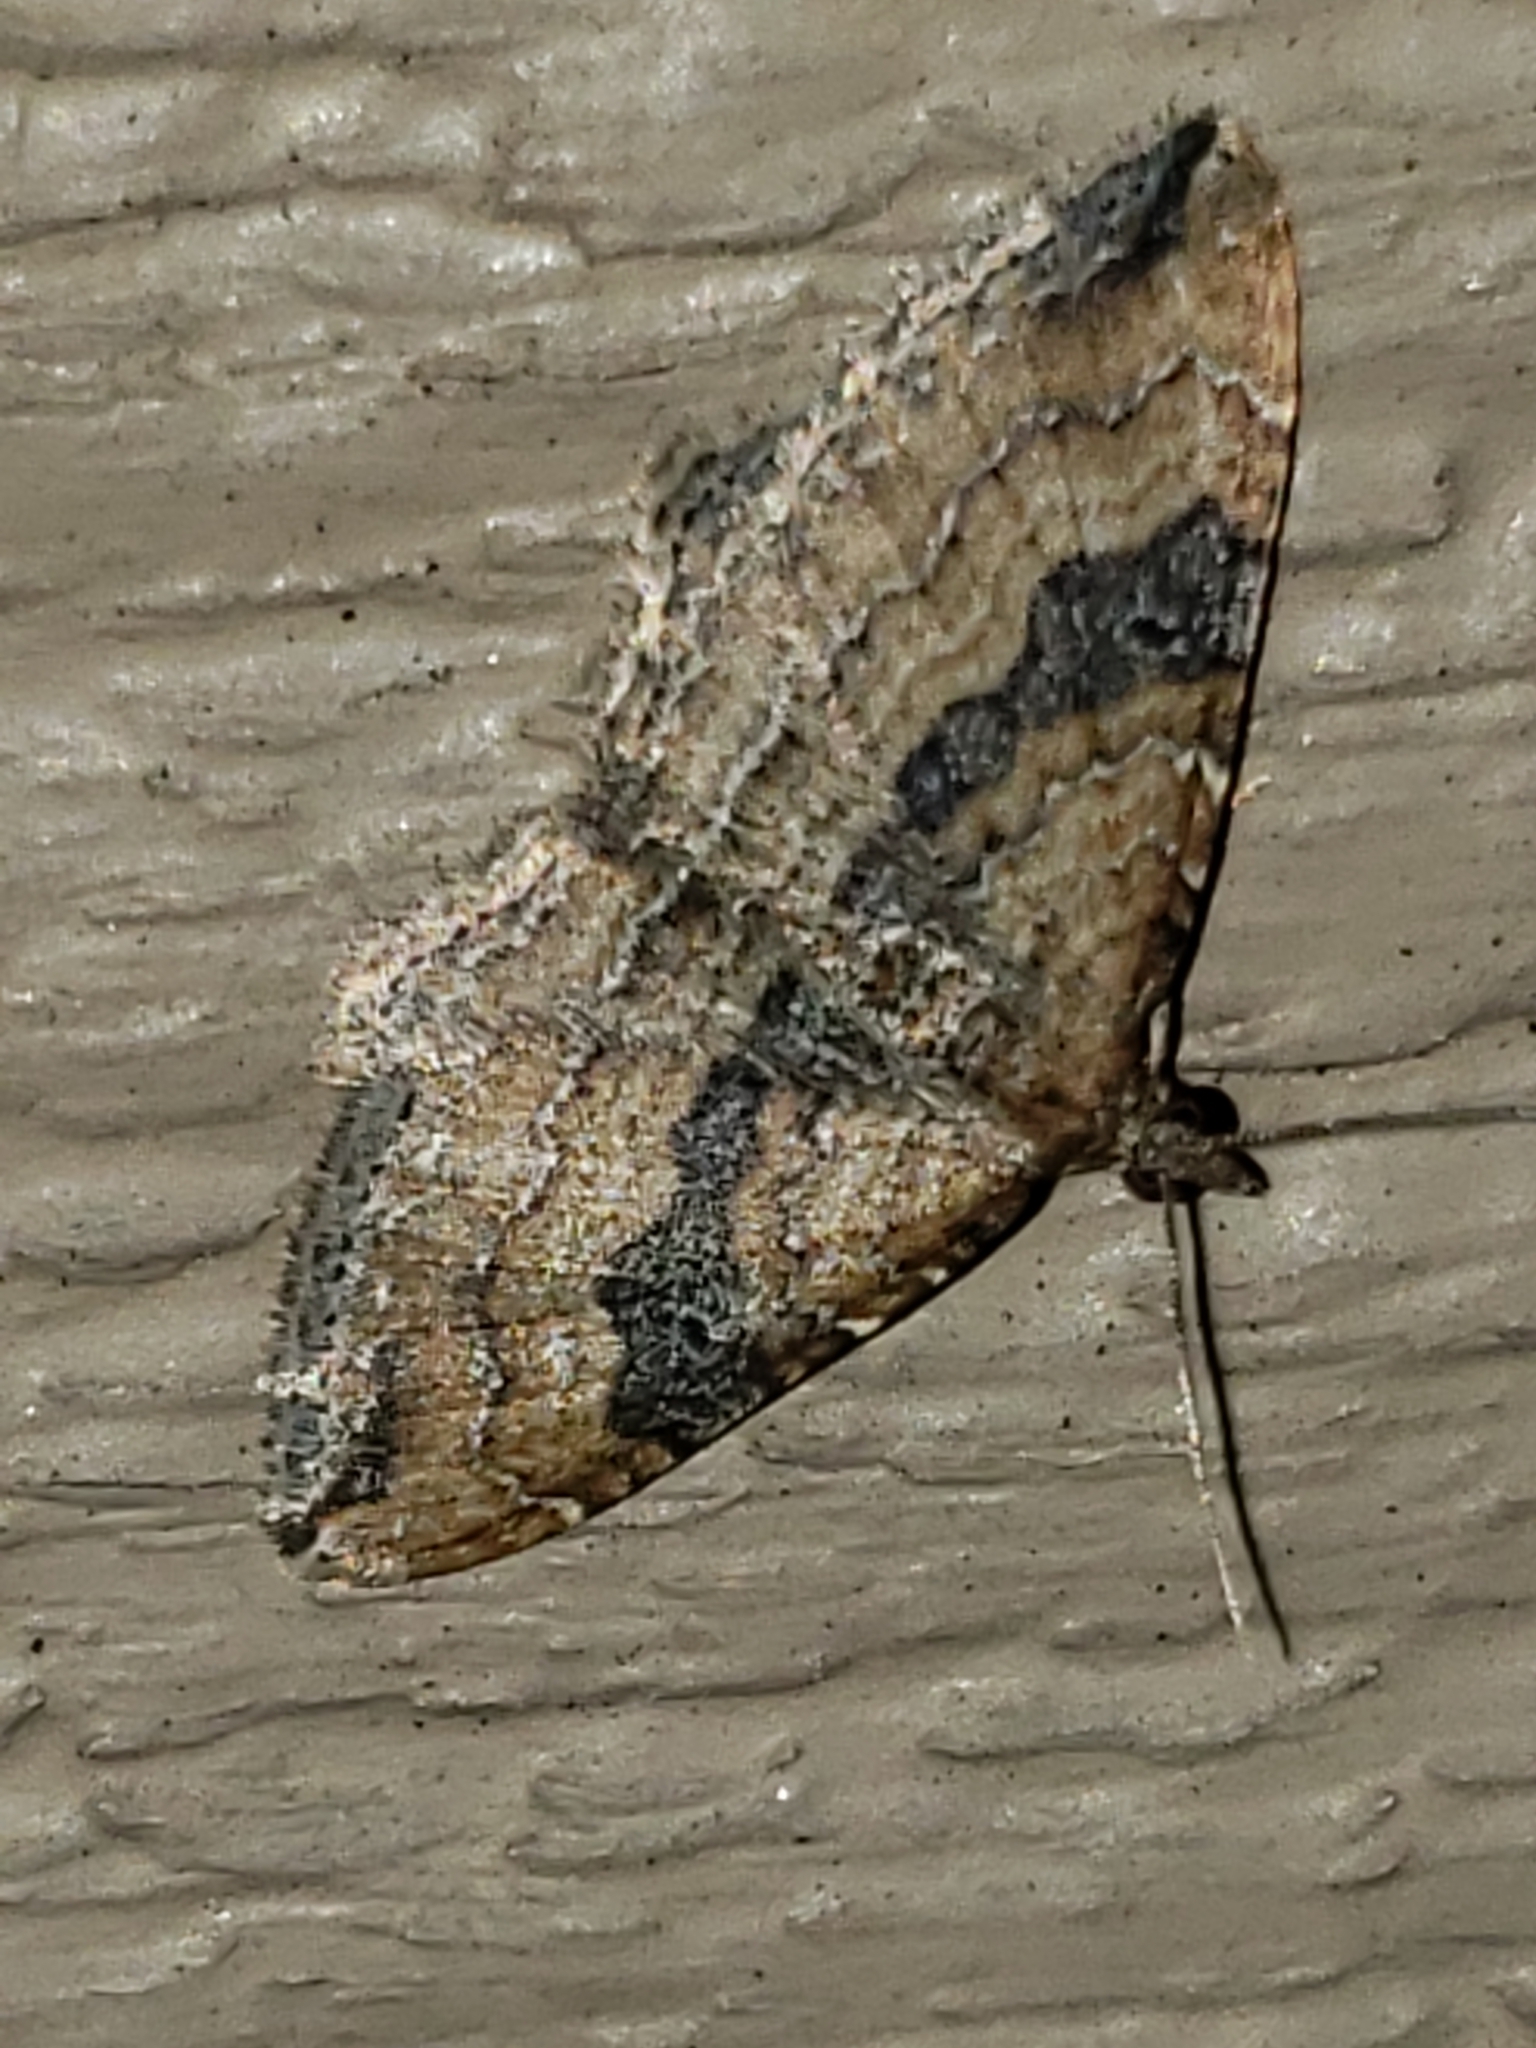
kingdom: Animalia
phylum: Arthropoda
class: Insecta
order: Lepidoptera
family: Geometridae
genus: Orthonama
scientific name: Orthonama obstipata
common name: The gem
